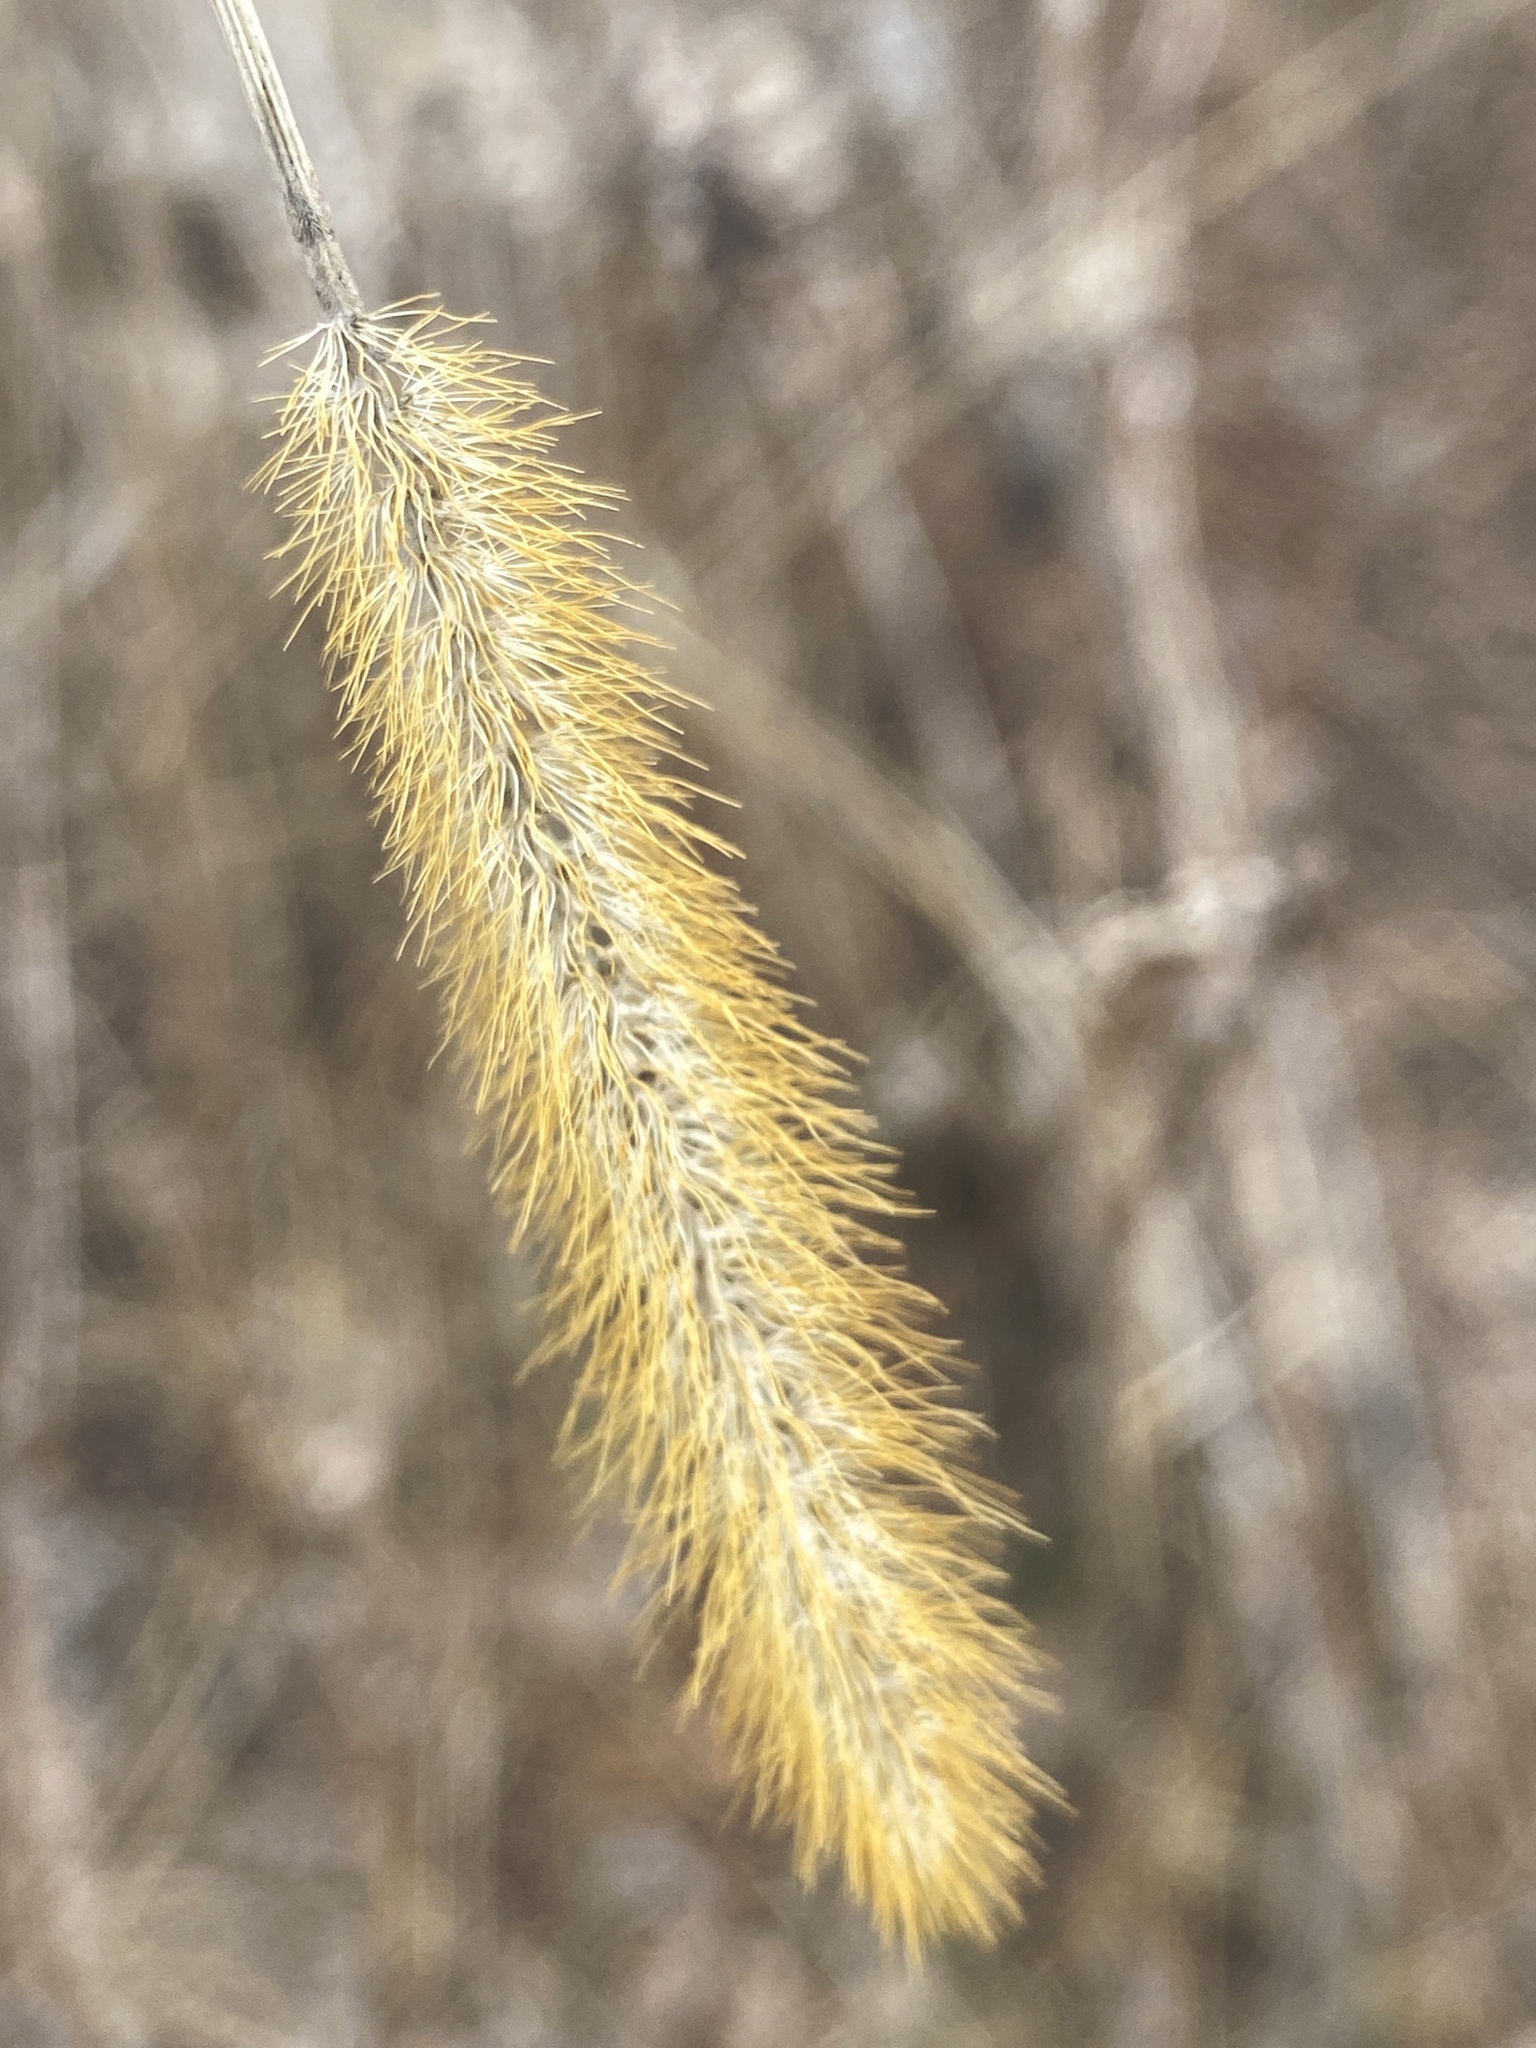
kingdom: Plantae
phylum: Tracheophyta
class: Liliopsida
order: Poales
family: Poaceae
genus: Setaria
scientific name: Setaria pumila
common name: Yellow bristle-grass
